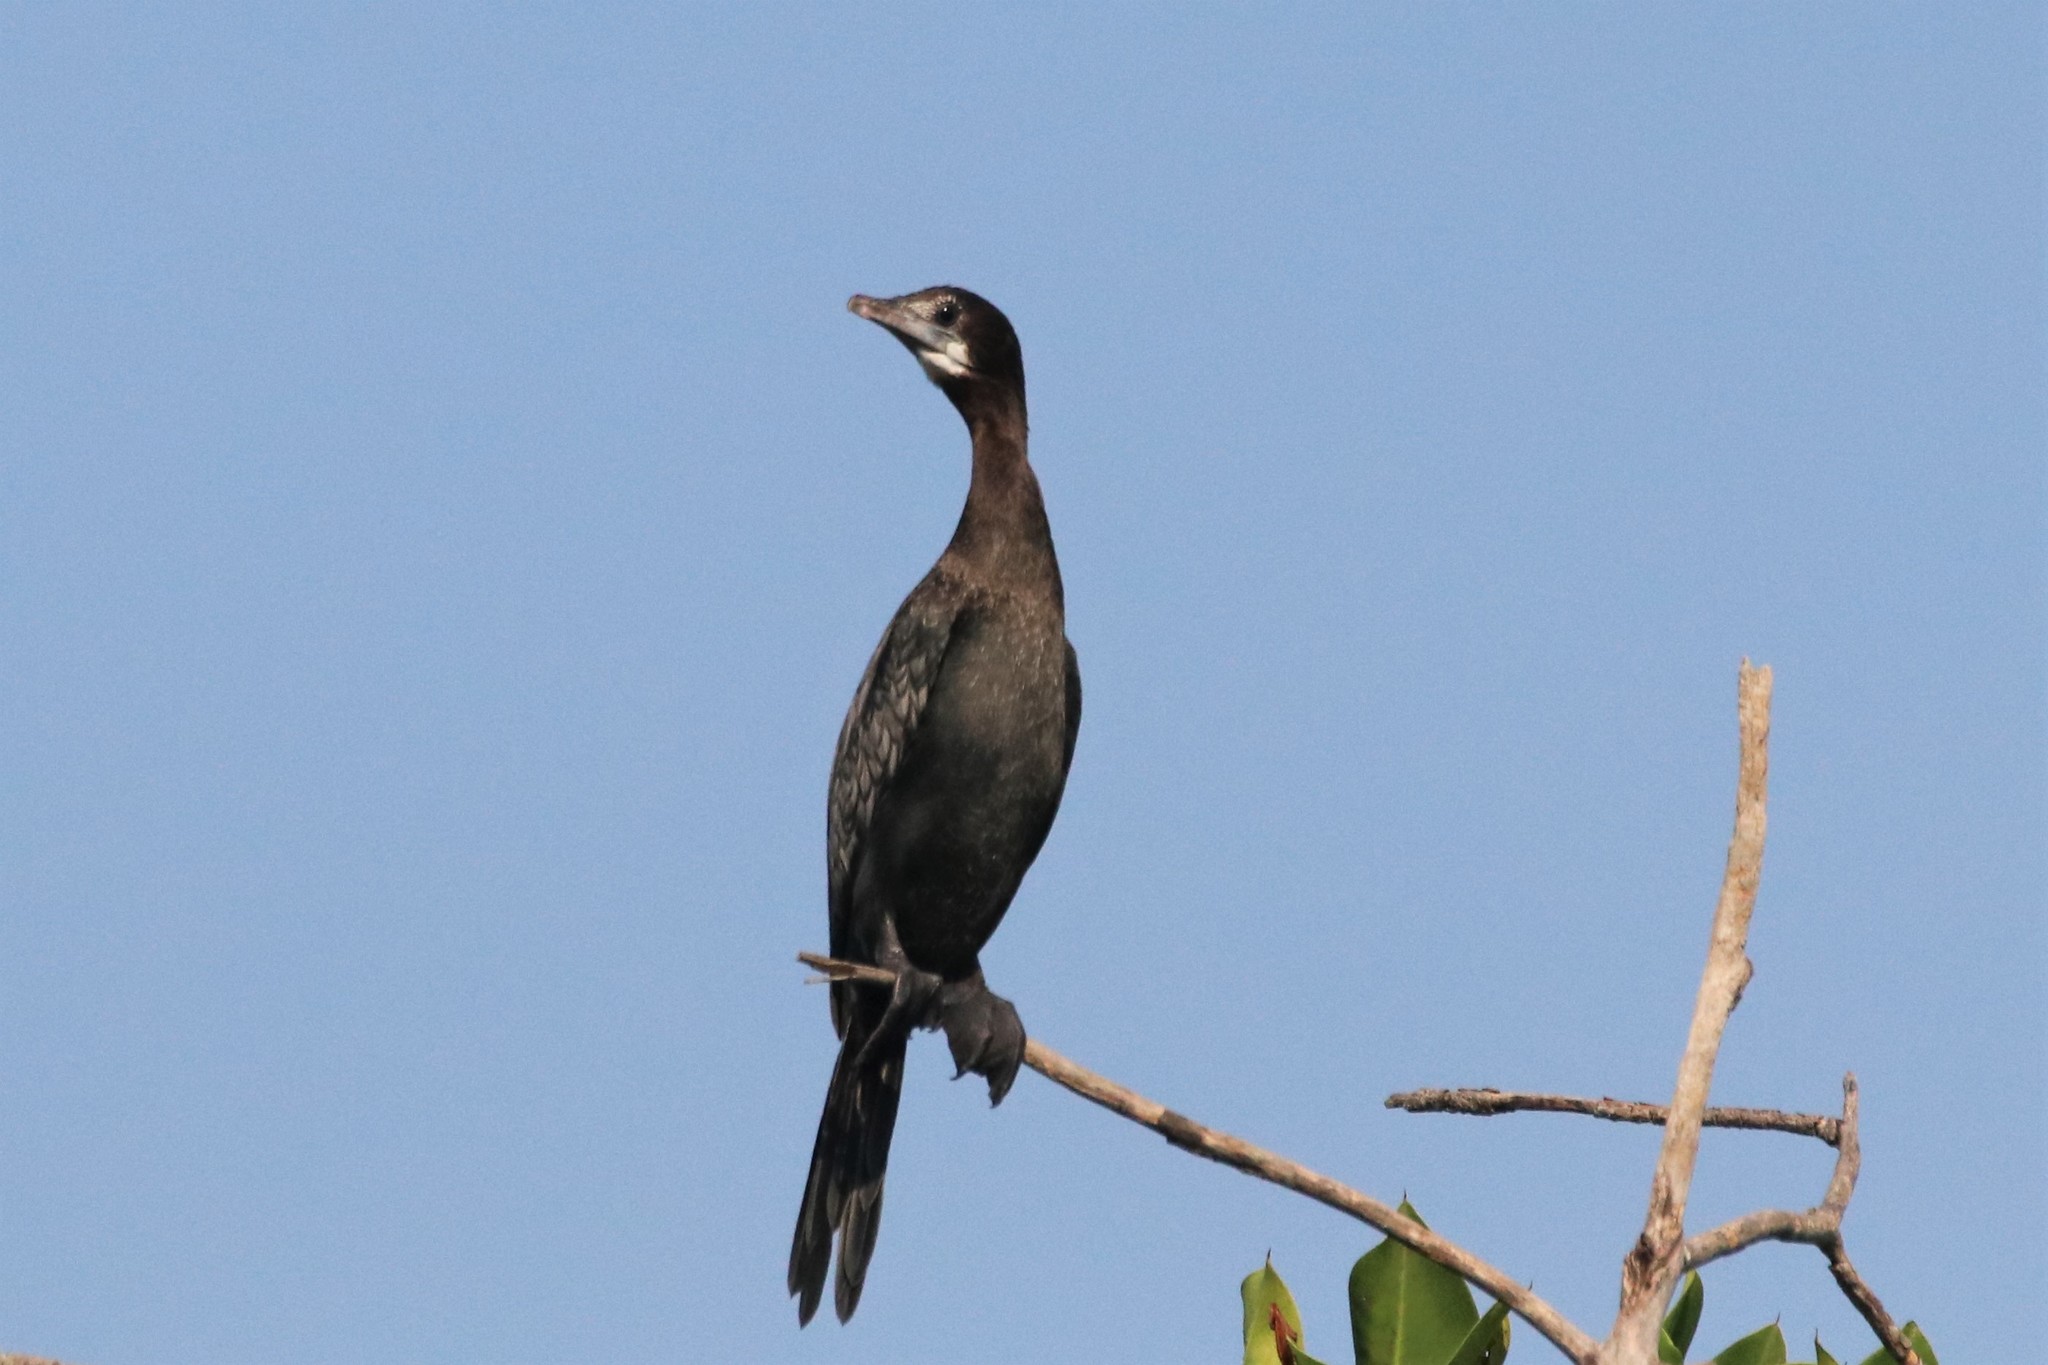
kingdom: Animalia
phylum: Chordata
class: Aves
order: Suliformes
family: Phalacrocoracidae
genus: Microcarbo
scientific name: Microcarbo niger
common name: Little cormorant
